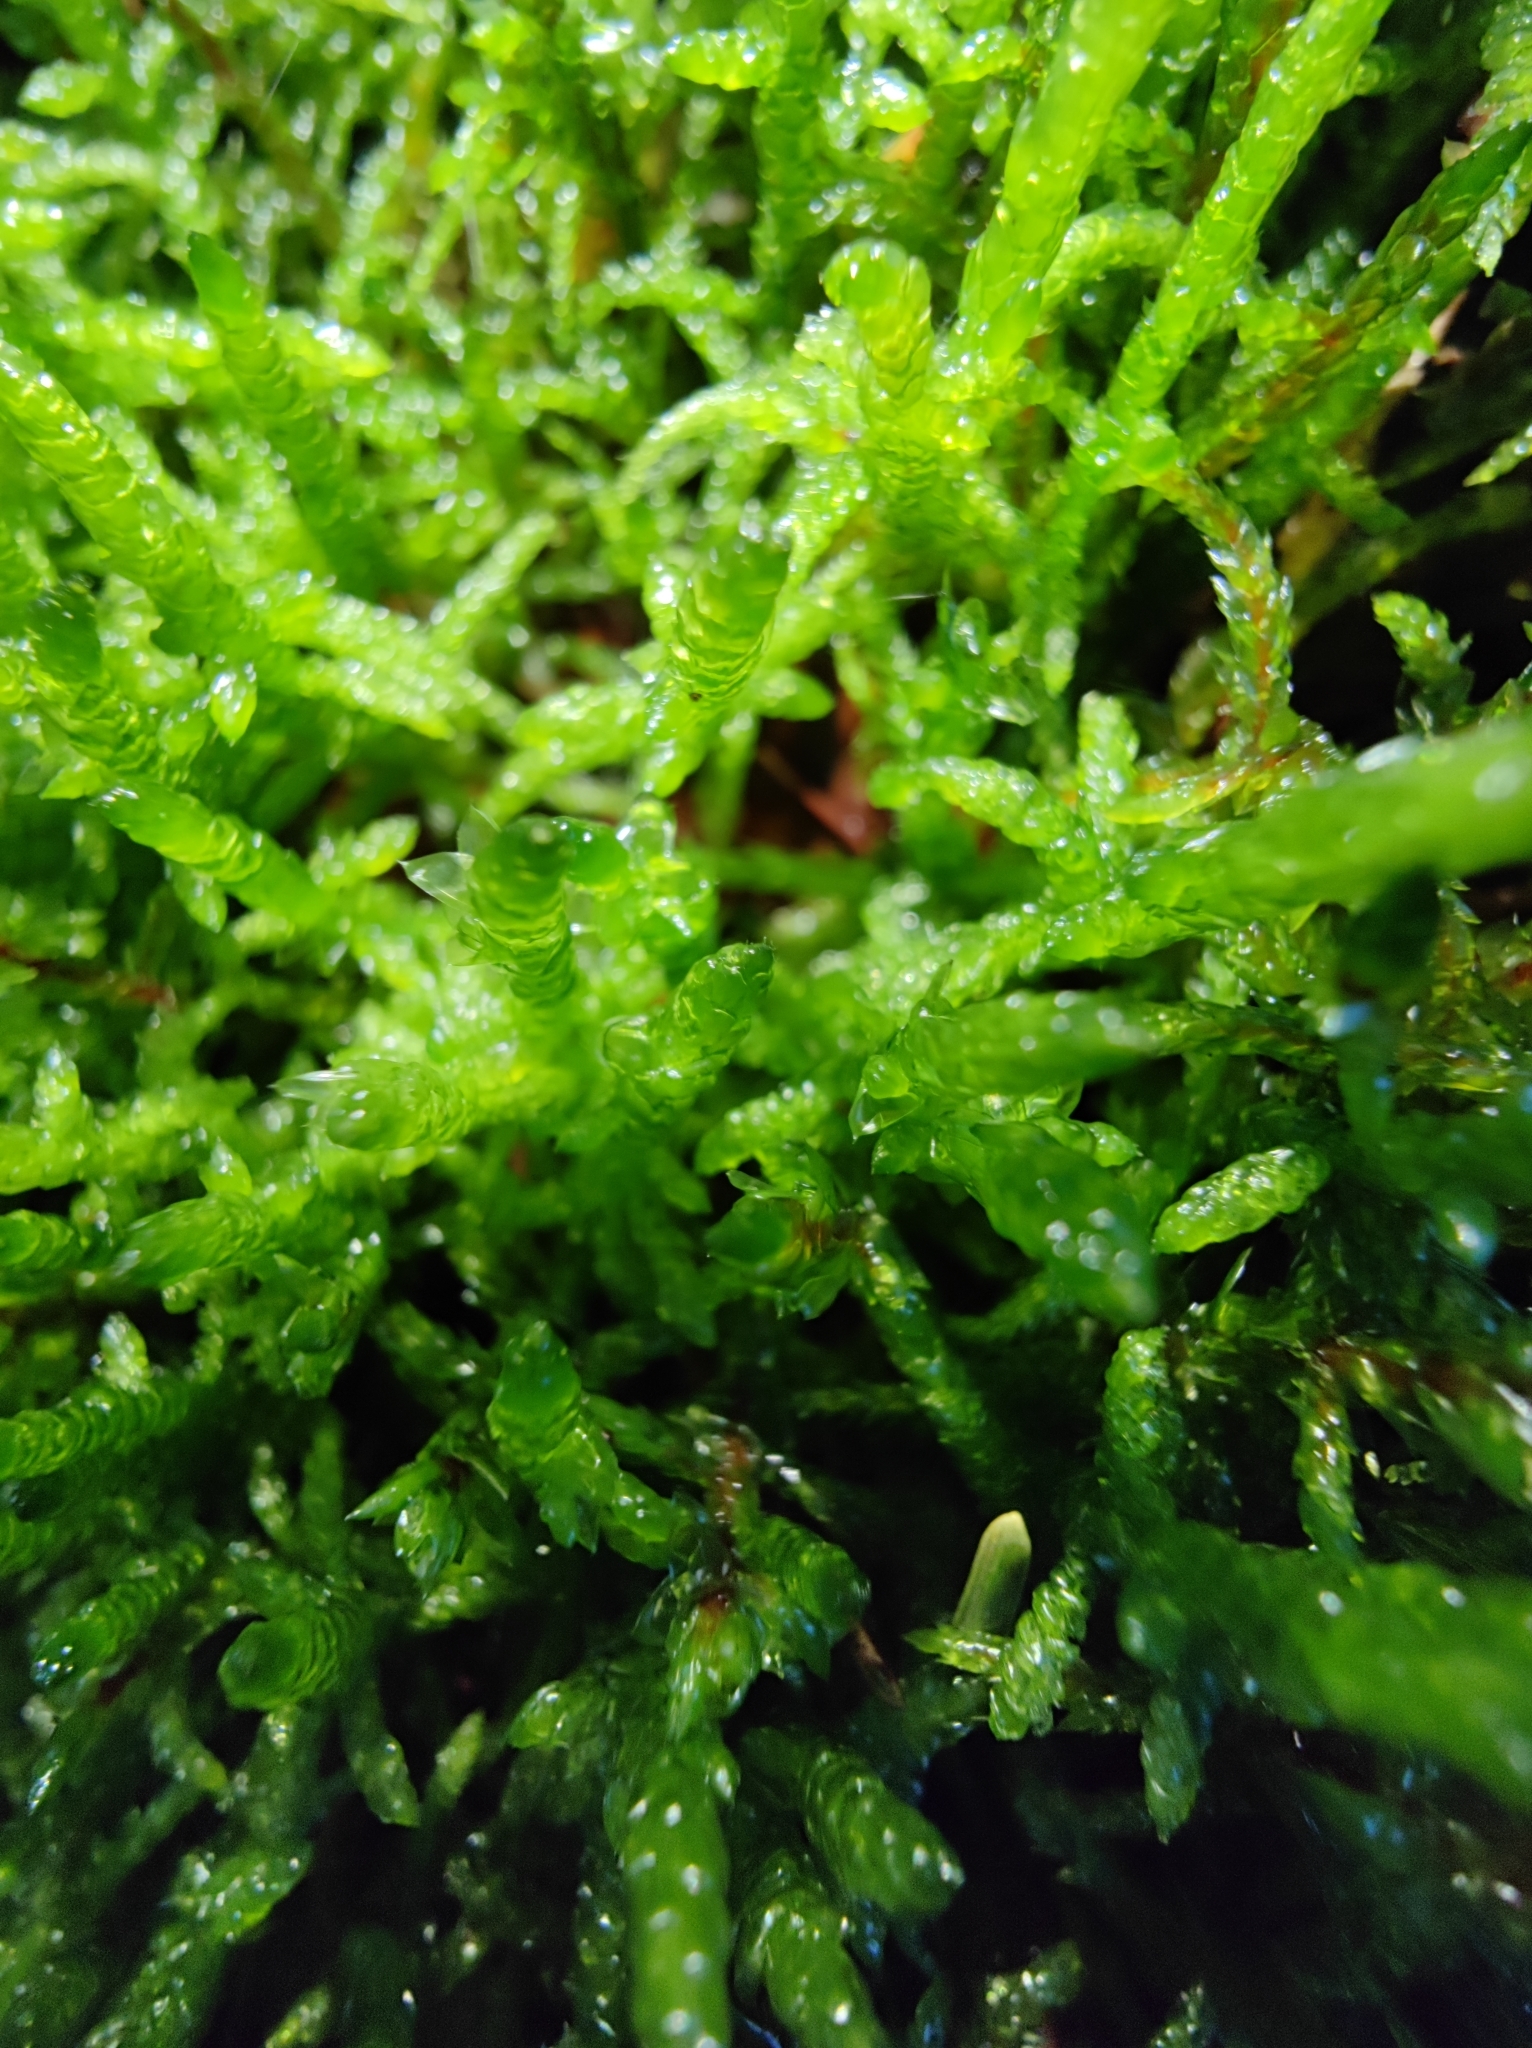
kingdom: Plantae
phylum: Bryophyta
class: Bryopsida
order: Hypnales
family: Brachytheciaceae
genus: Pseudoscleropodium
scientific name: Pseudoscleropodium purum
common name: Neat feather-moss
